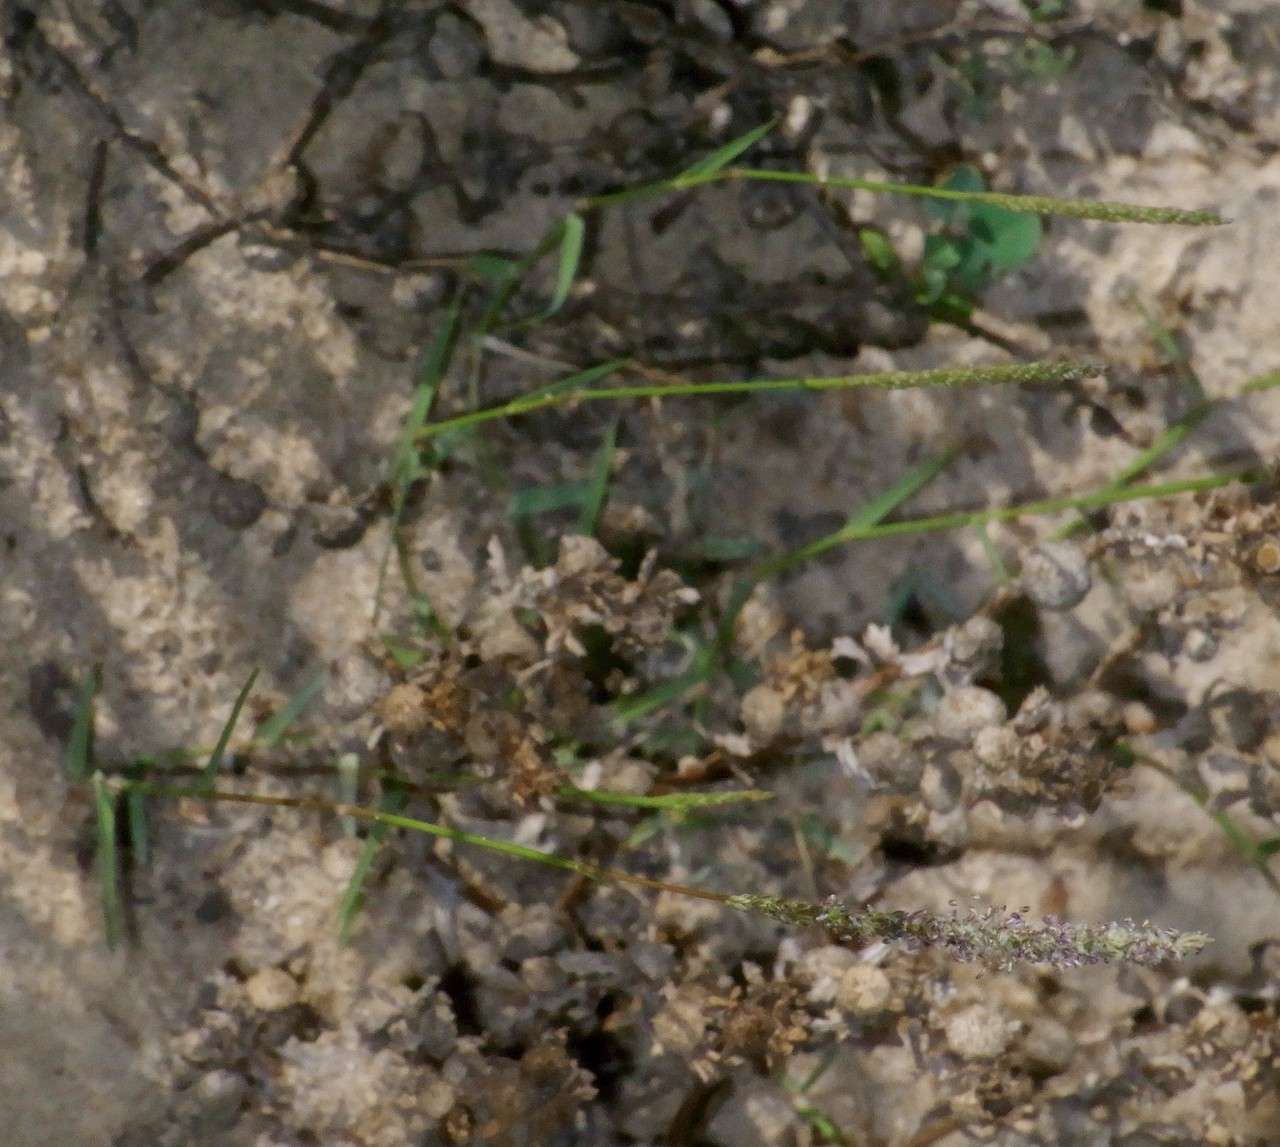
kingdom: Plantae
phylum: Tracheophyta
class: Liliopsida
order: Poales
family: Poaceae
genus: Sporobolus
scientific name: Sporobolus mitchellii
